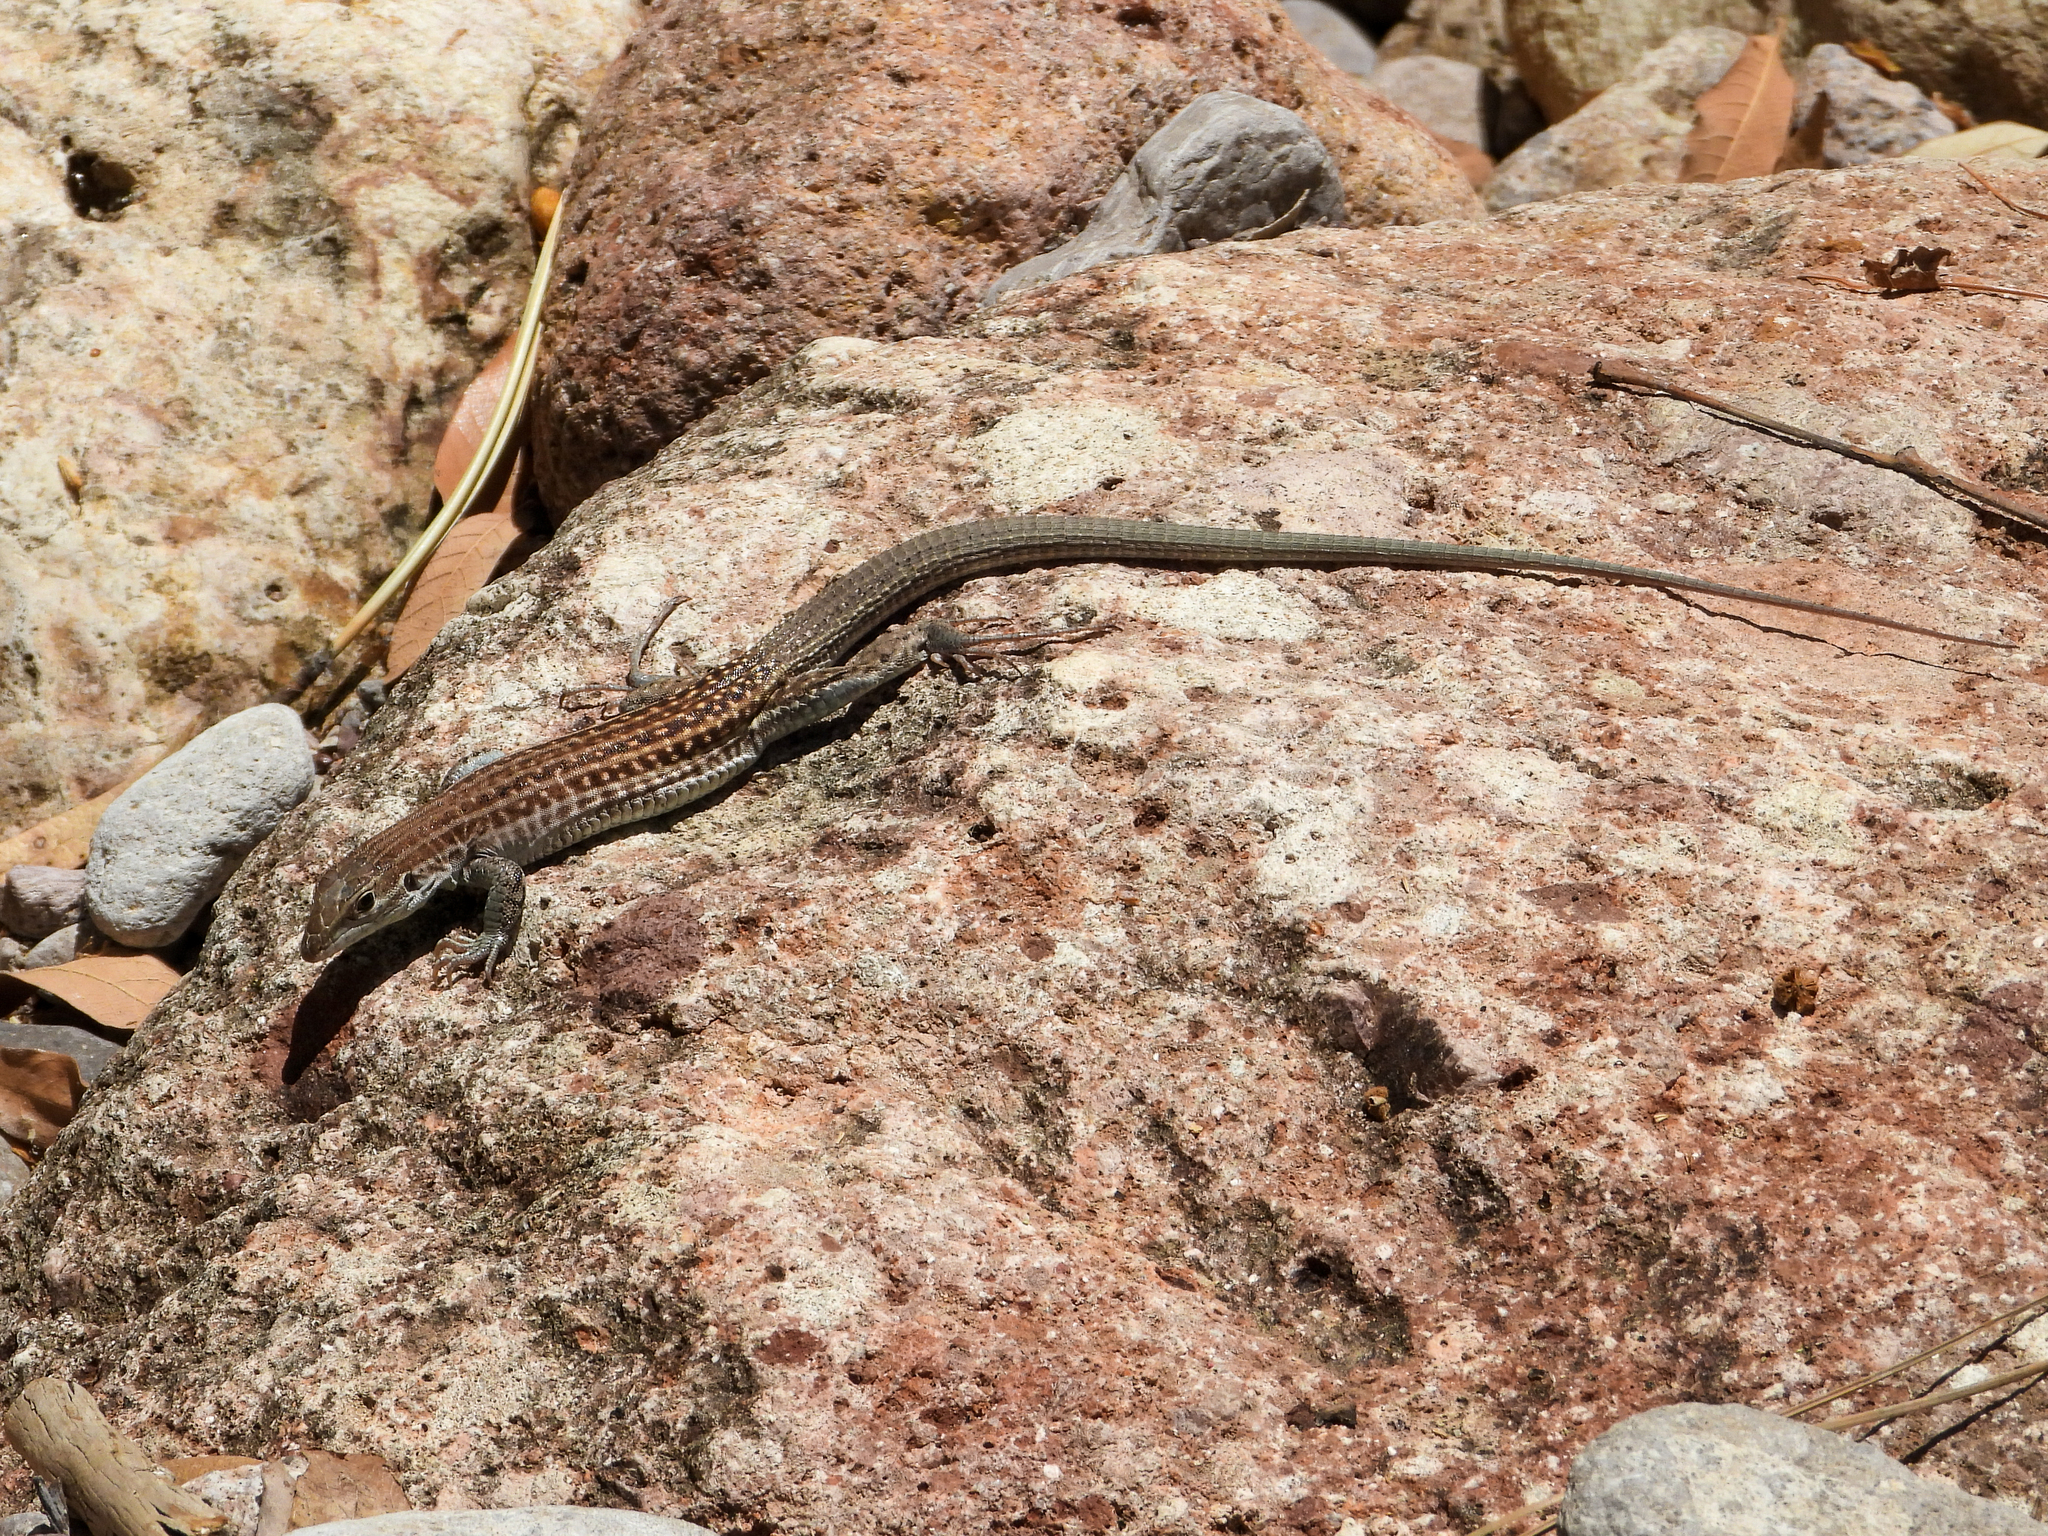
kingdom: Animalia
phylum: Chordata
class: Squamata
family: Teiidae
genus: Aspidoscelis
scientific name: Aspidoscelis exsanguis
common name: Chihuahuan spotted whiptail
